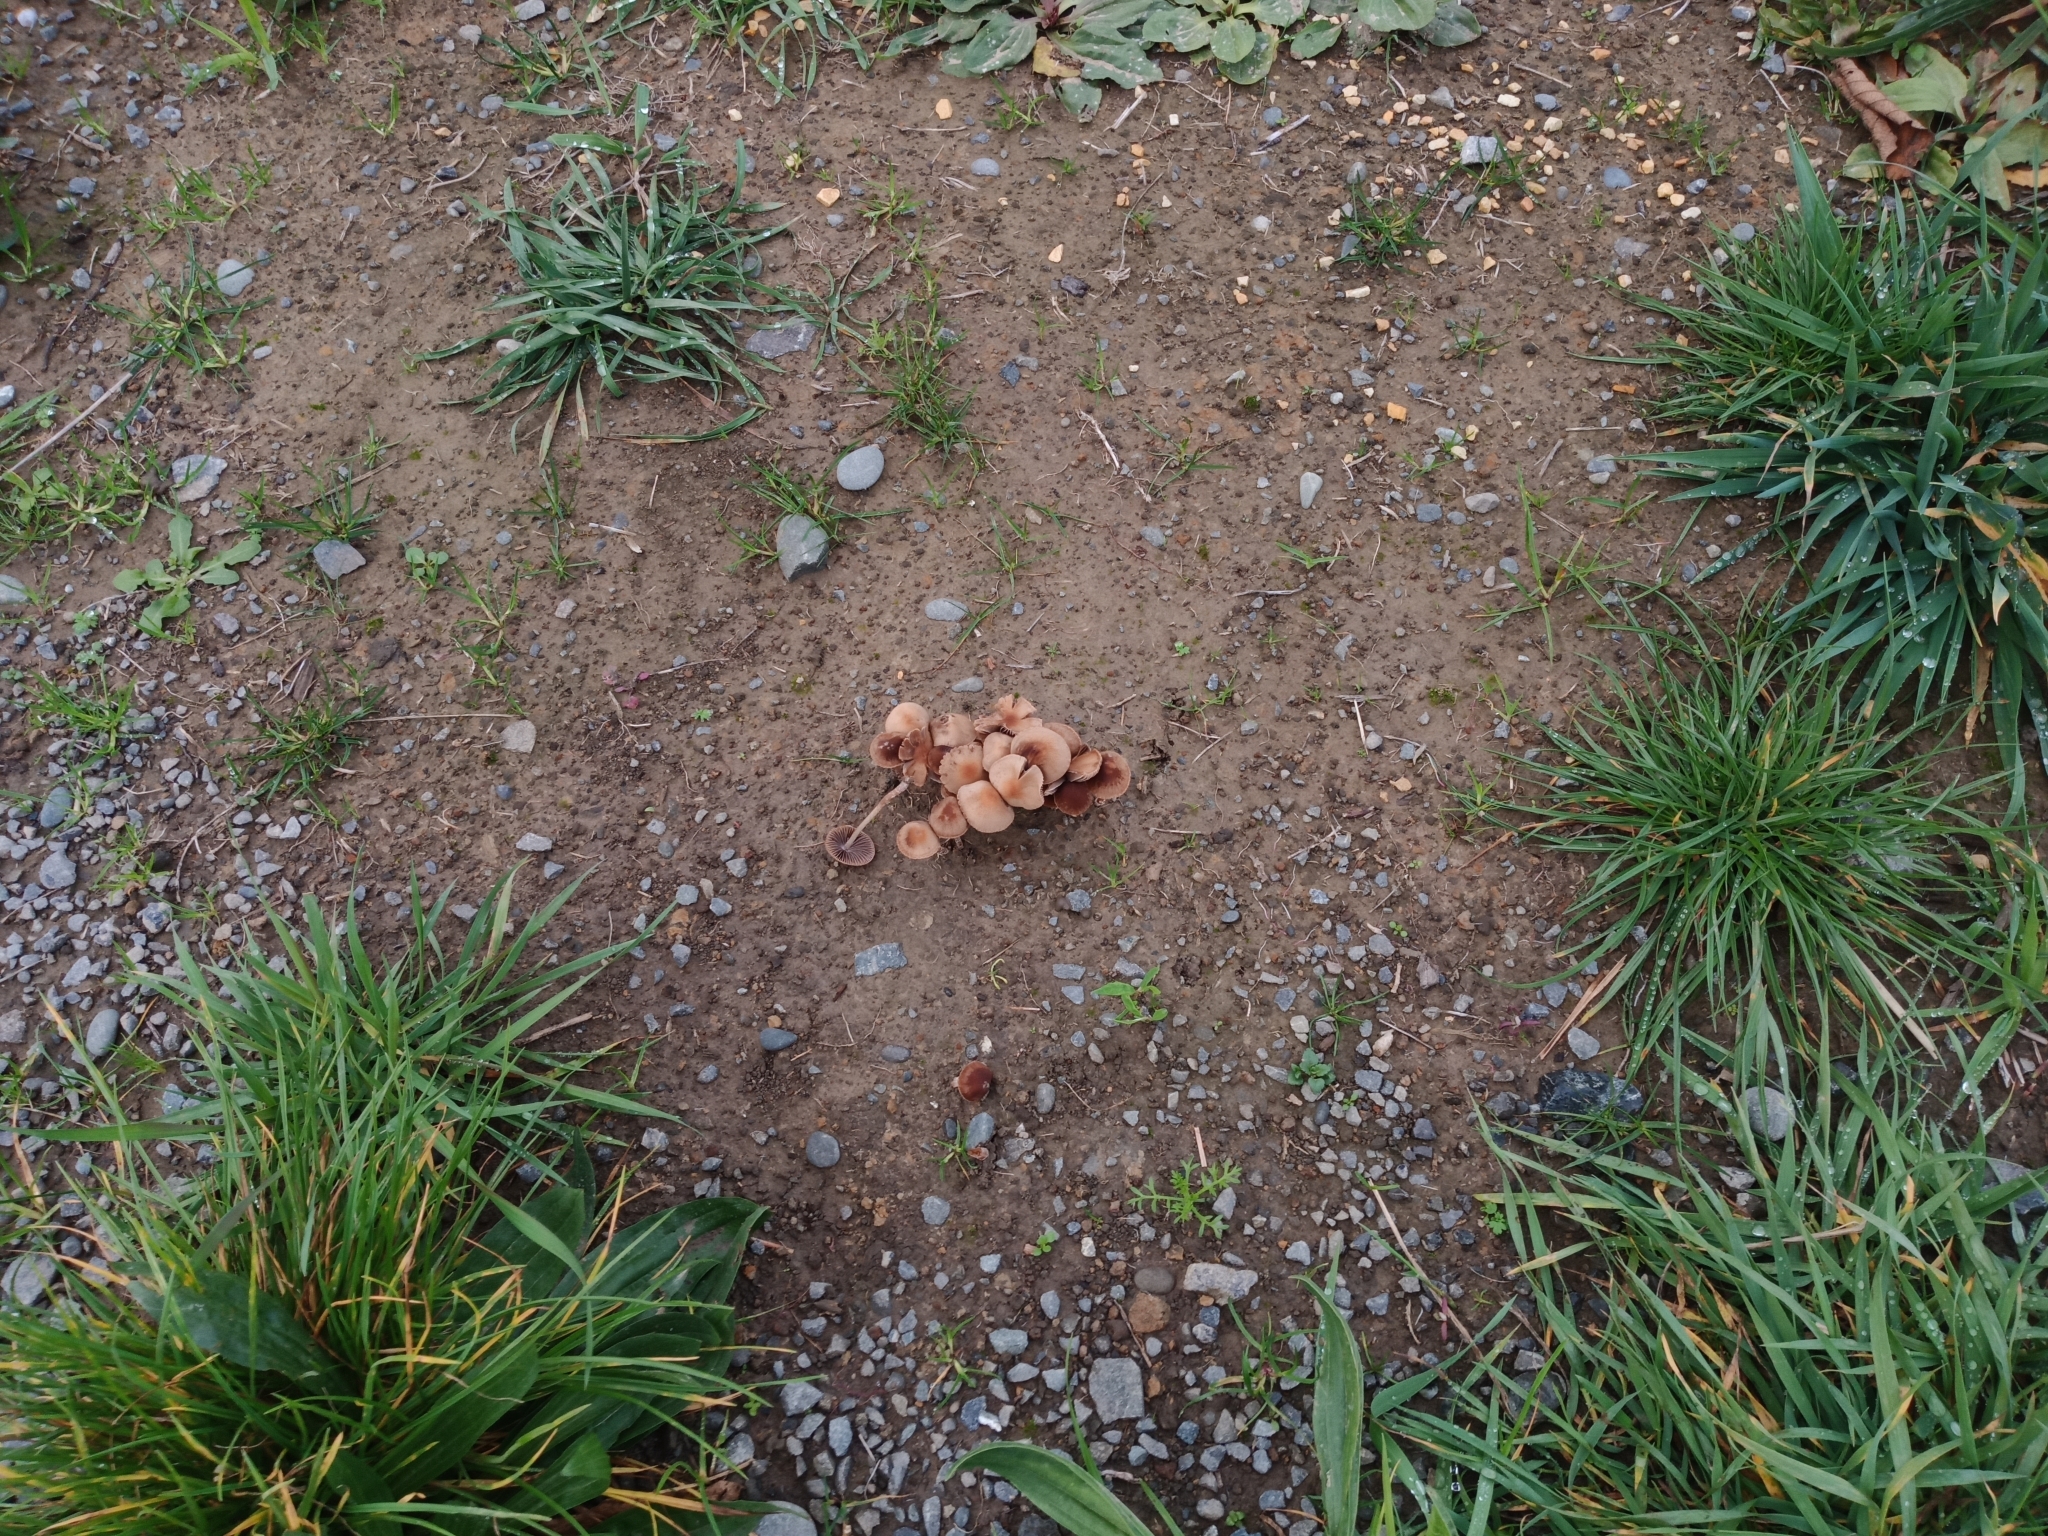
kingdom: Fungi
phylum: Basidiomycota
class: Agaricomycetes
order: Agaricales
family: Bolbitiaceae
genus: Panaeolina
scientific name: Panaeolina foenisecii
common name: Brown hay cap
